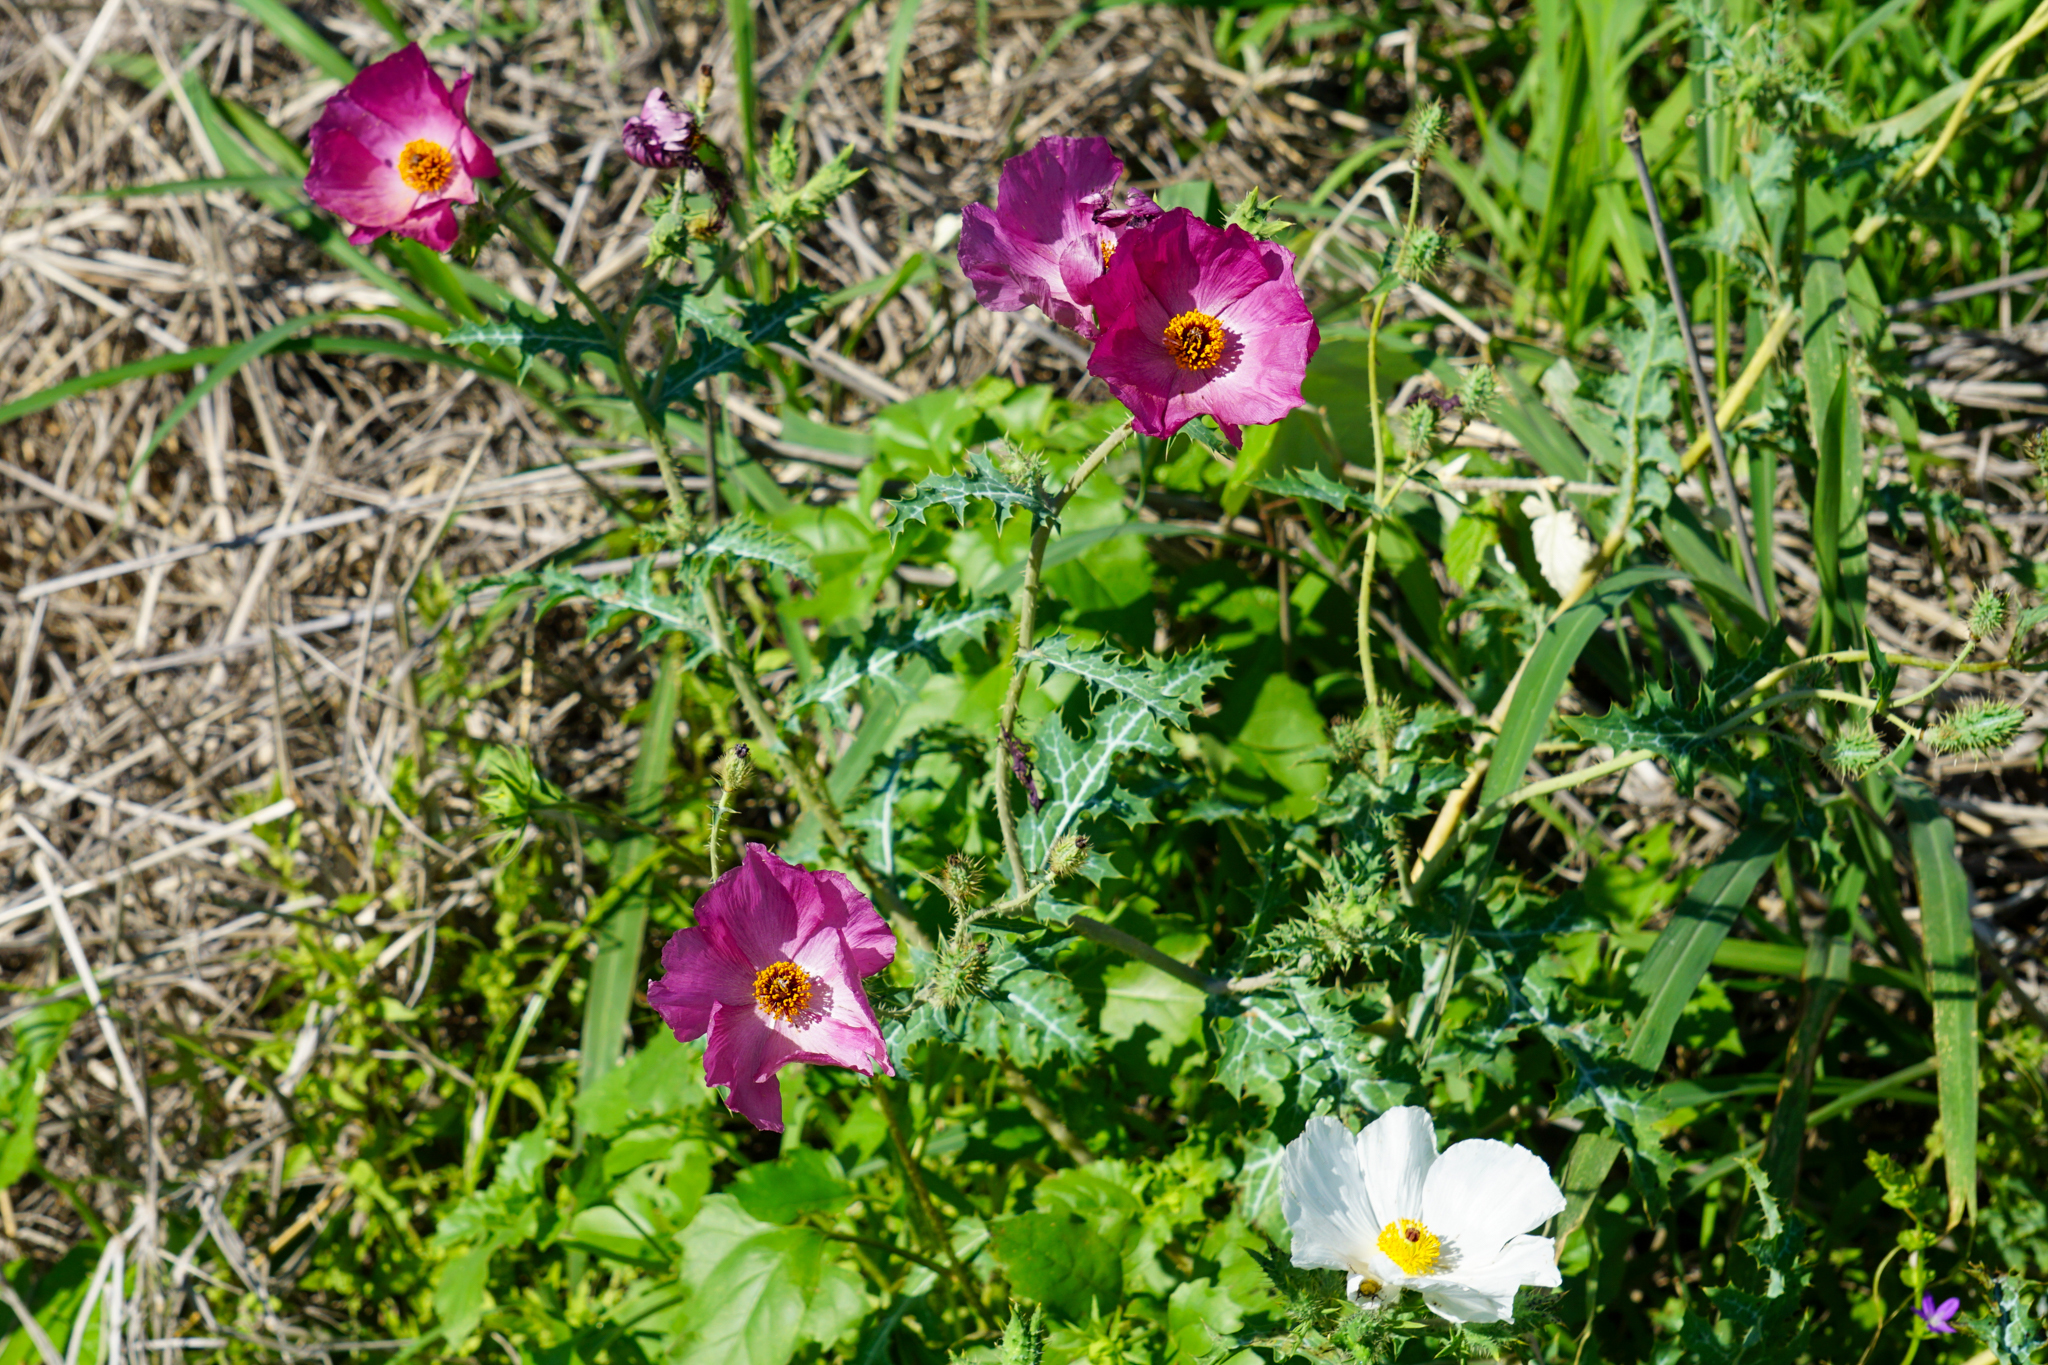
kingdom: Plantae
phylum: Tracheophyta
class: Magnoliopsida
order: Ranunculales
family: Papaveraceae
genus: Argemone
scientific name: Argemone sanguinea
